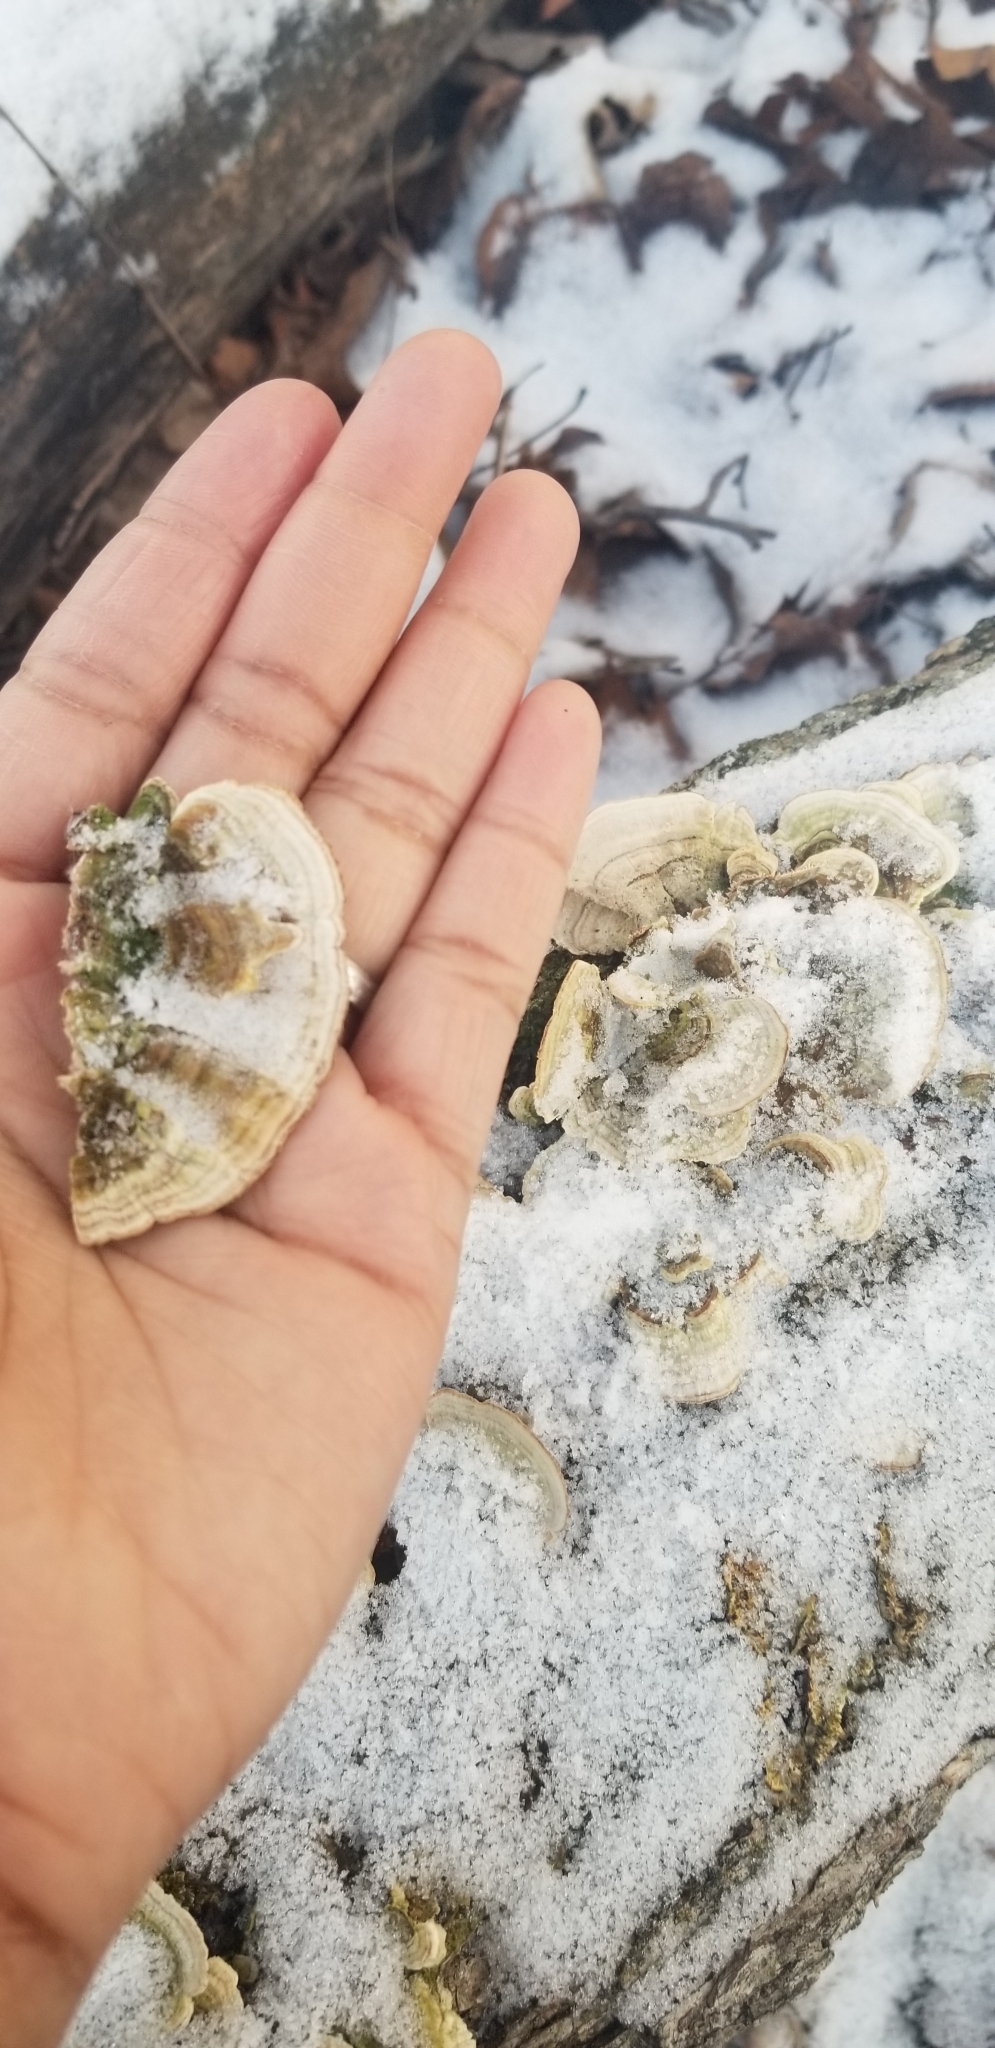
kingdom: Fungi
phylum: Basidiomycota
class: Agaricomycetes
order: Hymenochaetales
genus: Trichaptum
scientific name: Trichaptum biforme
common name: Violet-toothed polypore
